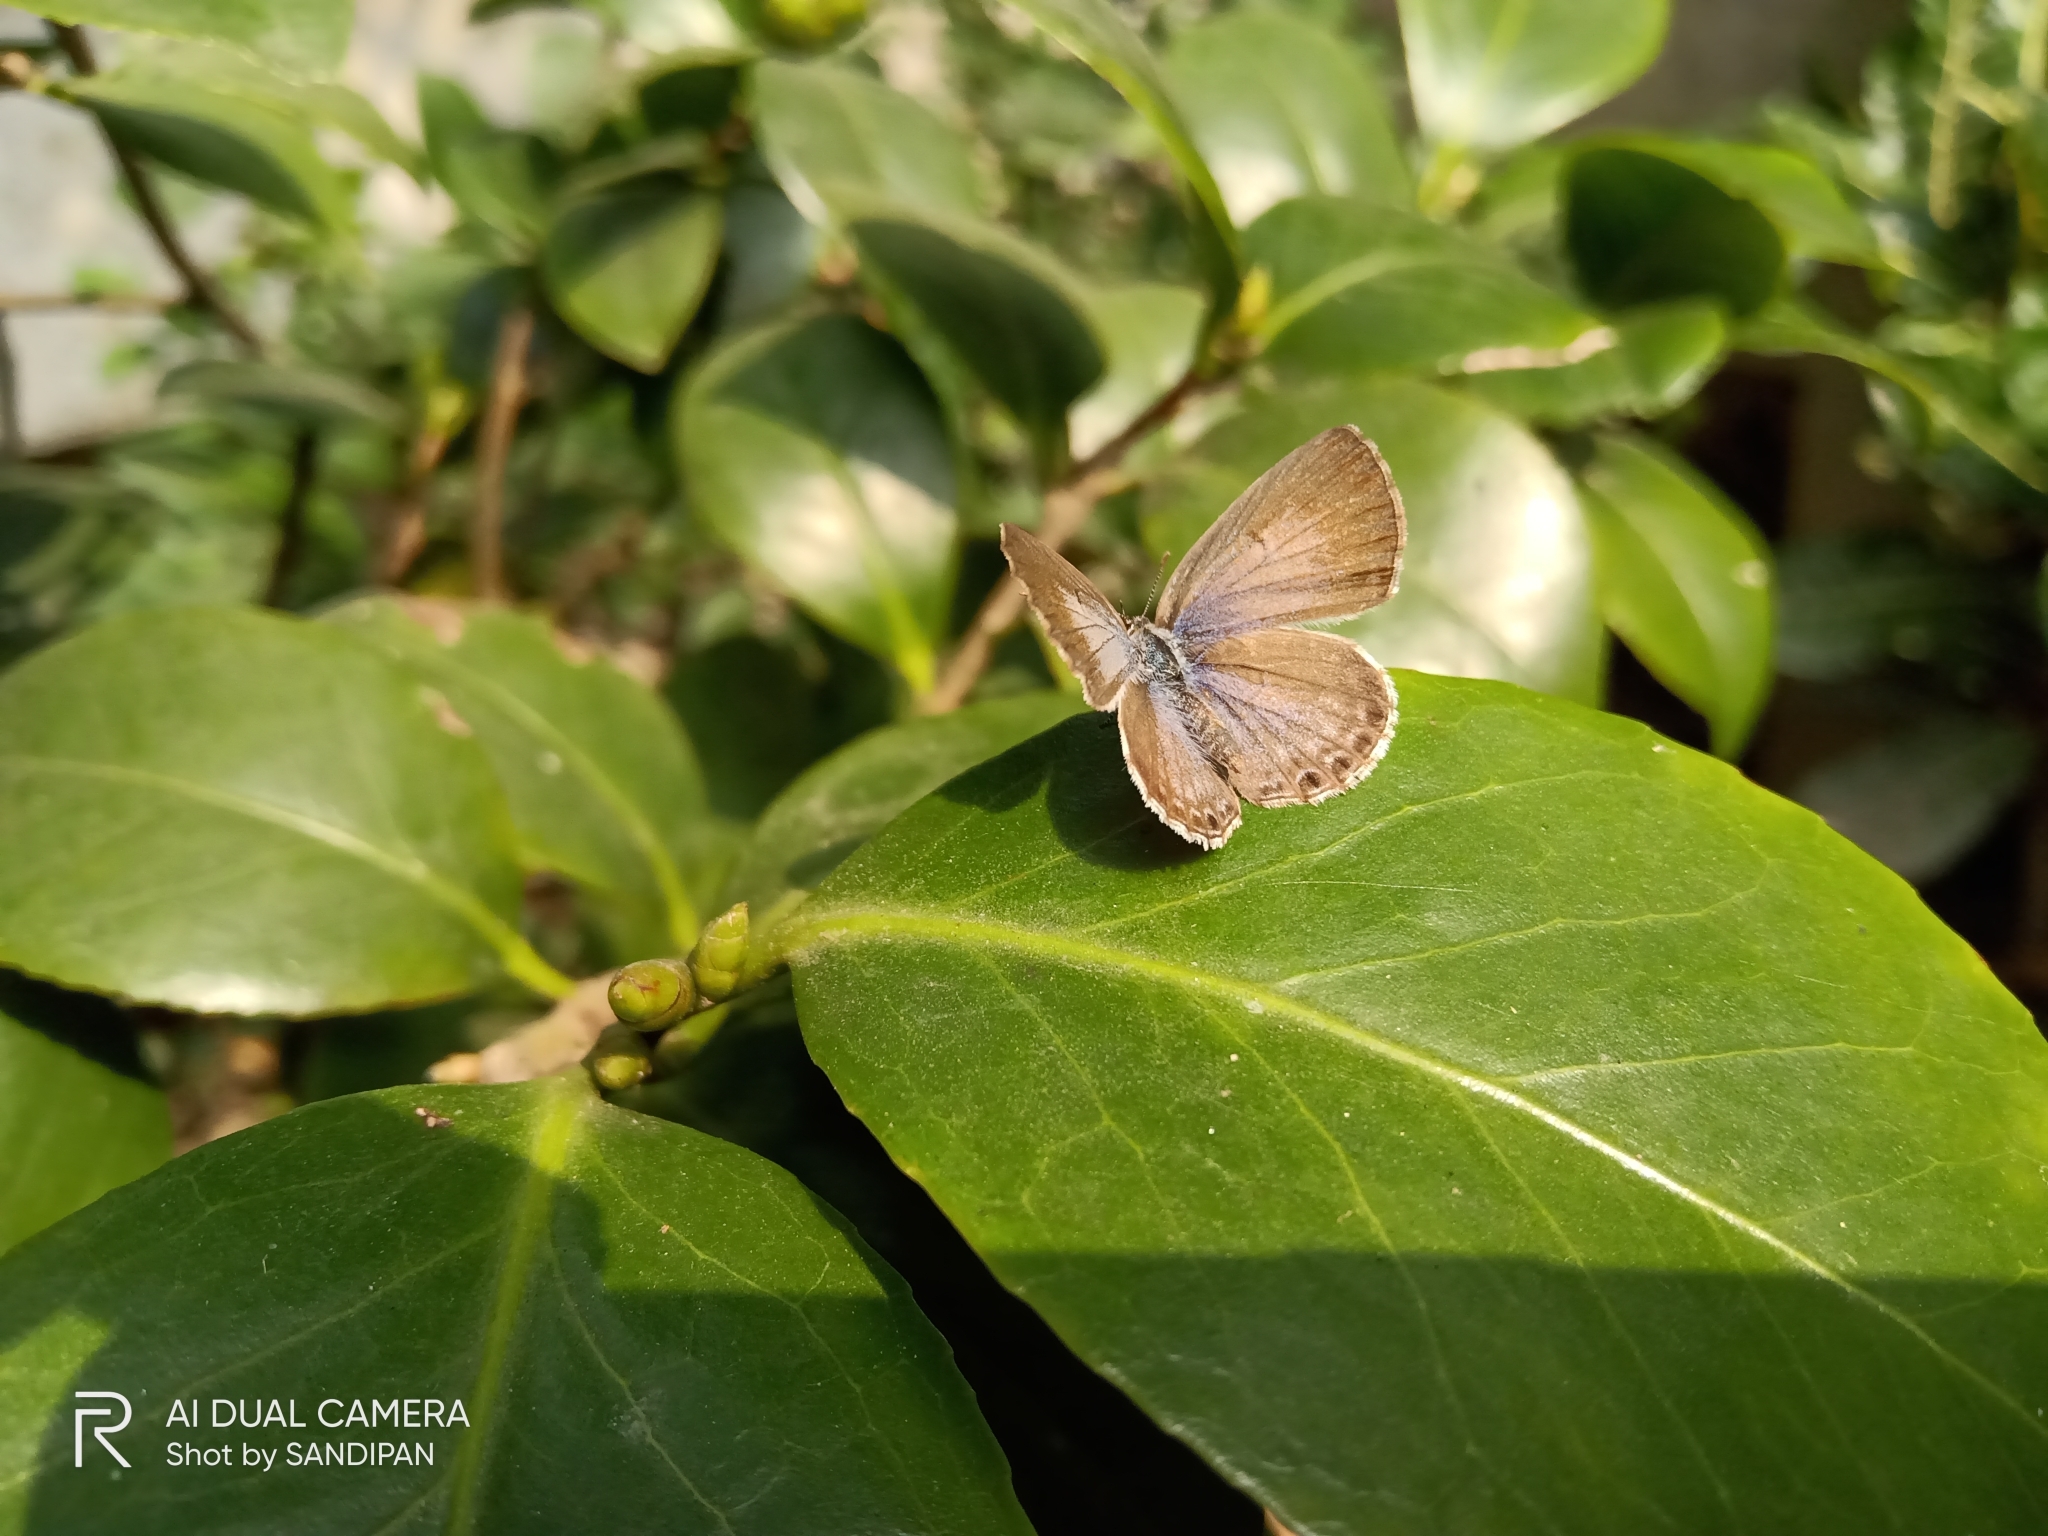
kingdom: Animalia
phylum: Arthropoda
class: Insecta
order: Lepidoptera
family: Lycaenidae
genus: Chilades
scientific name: Chilades laius
